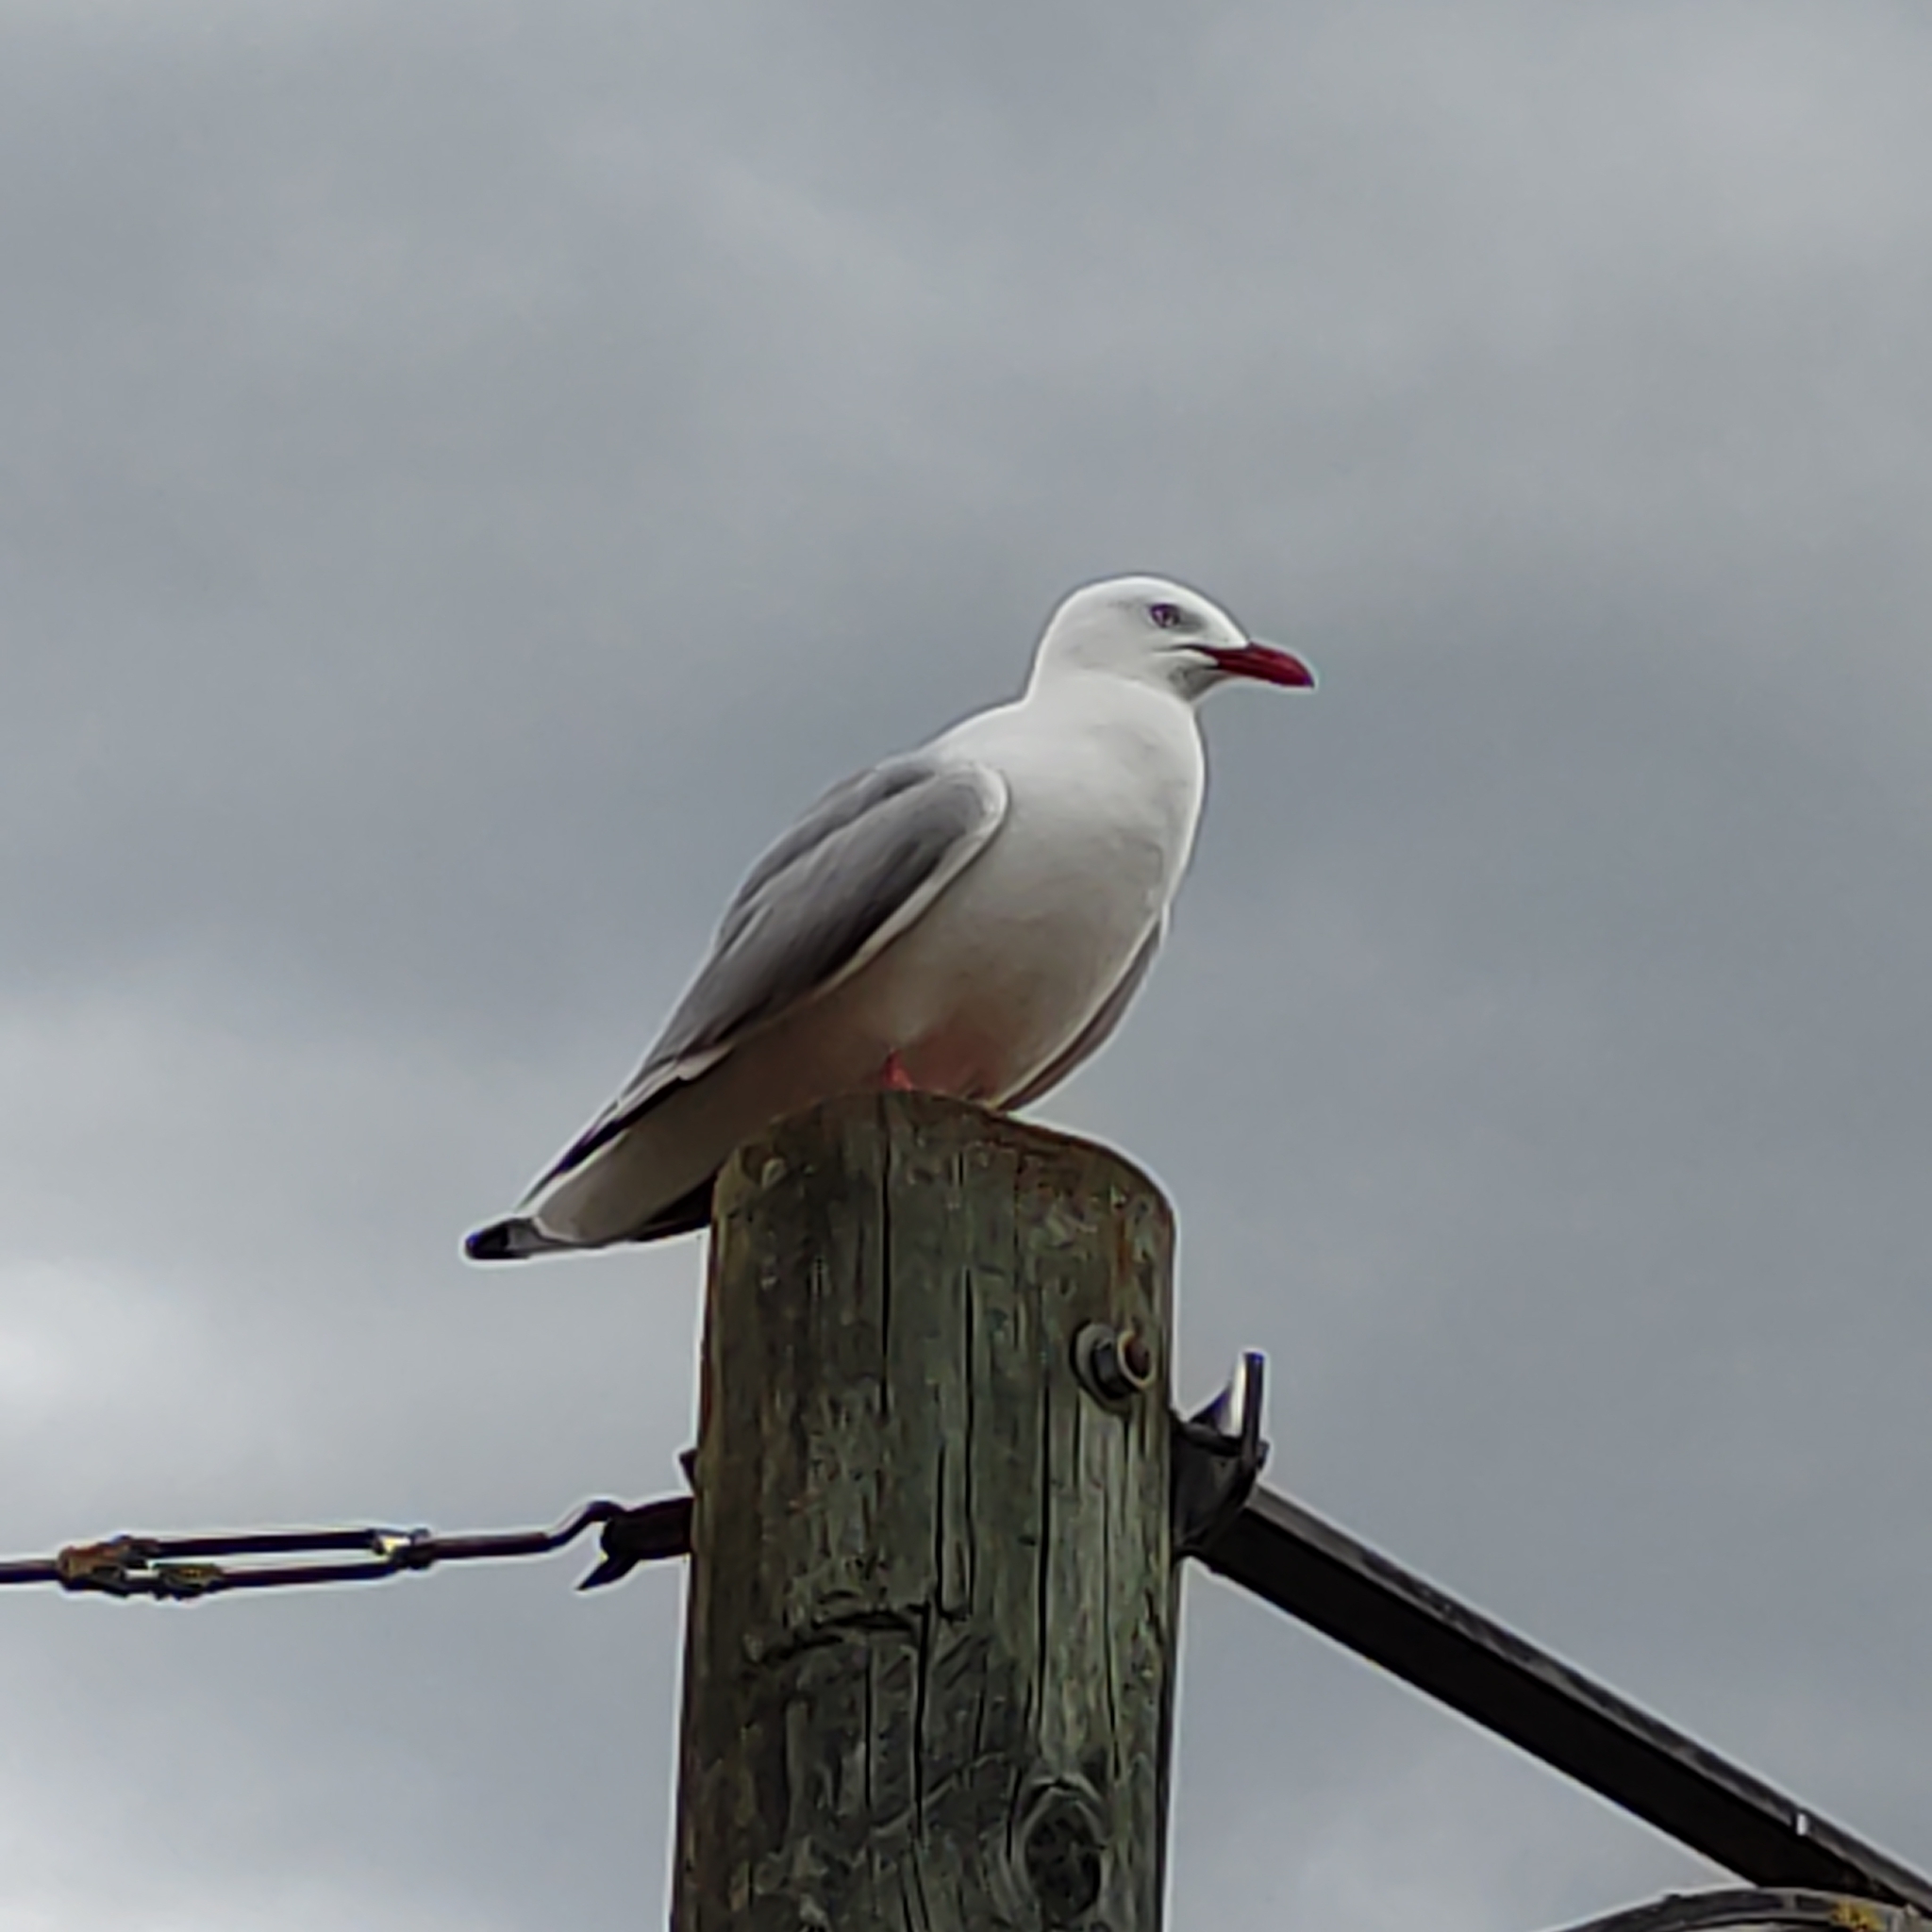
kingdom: Animalia
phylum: Chordata
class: Aves
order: Charadriiformes
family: Laridae
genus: Chroicocephalus
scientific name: Chroicocephalus novaehollandiae
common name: Silver gull
